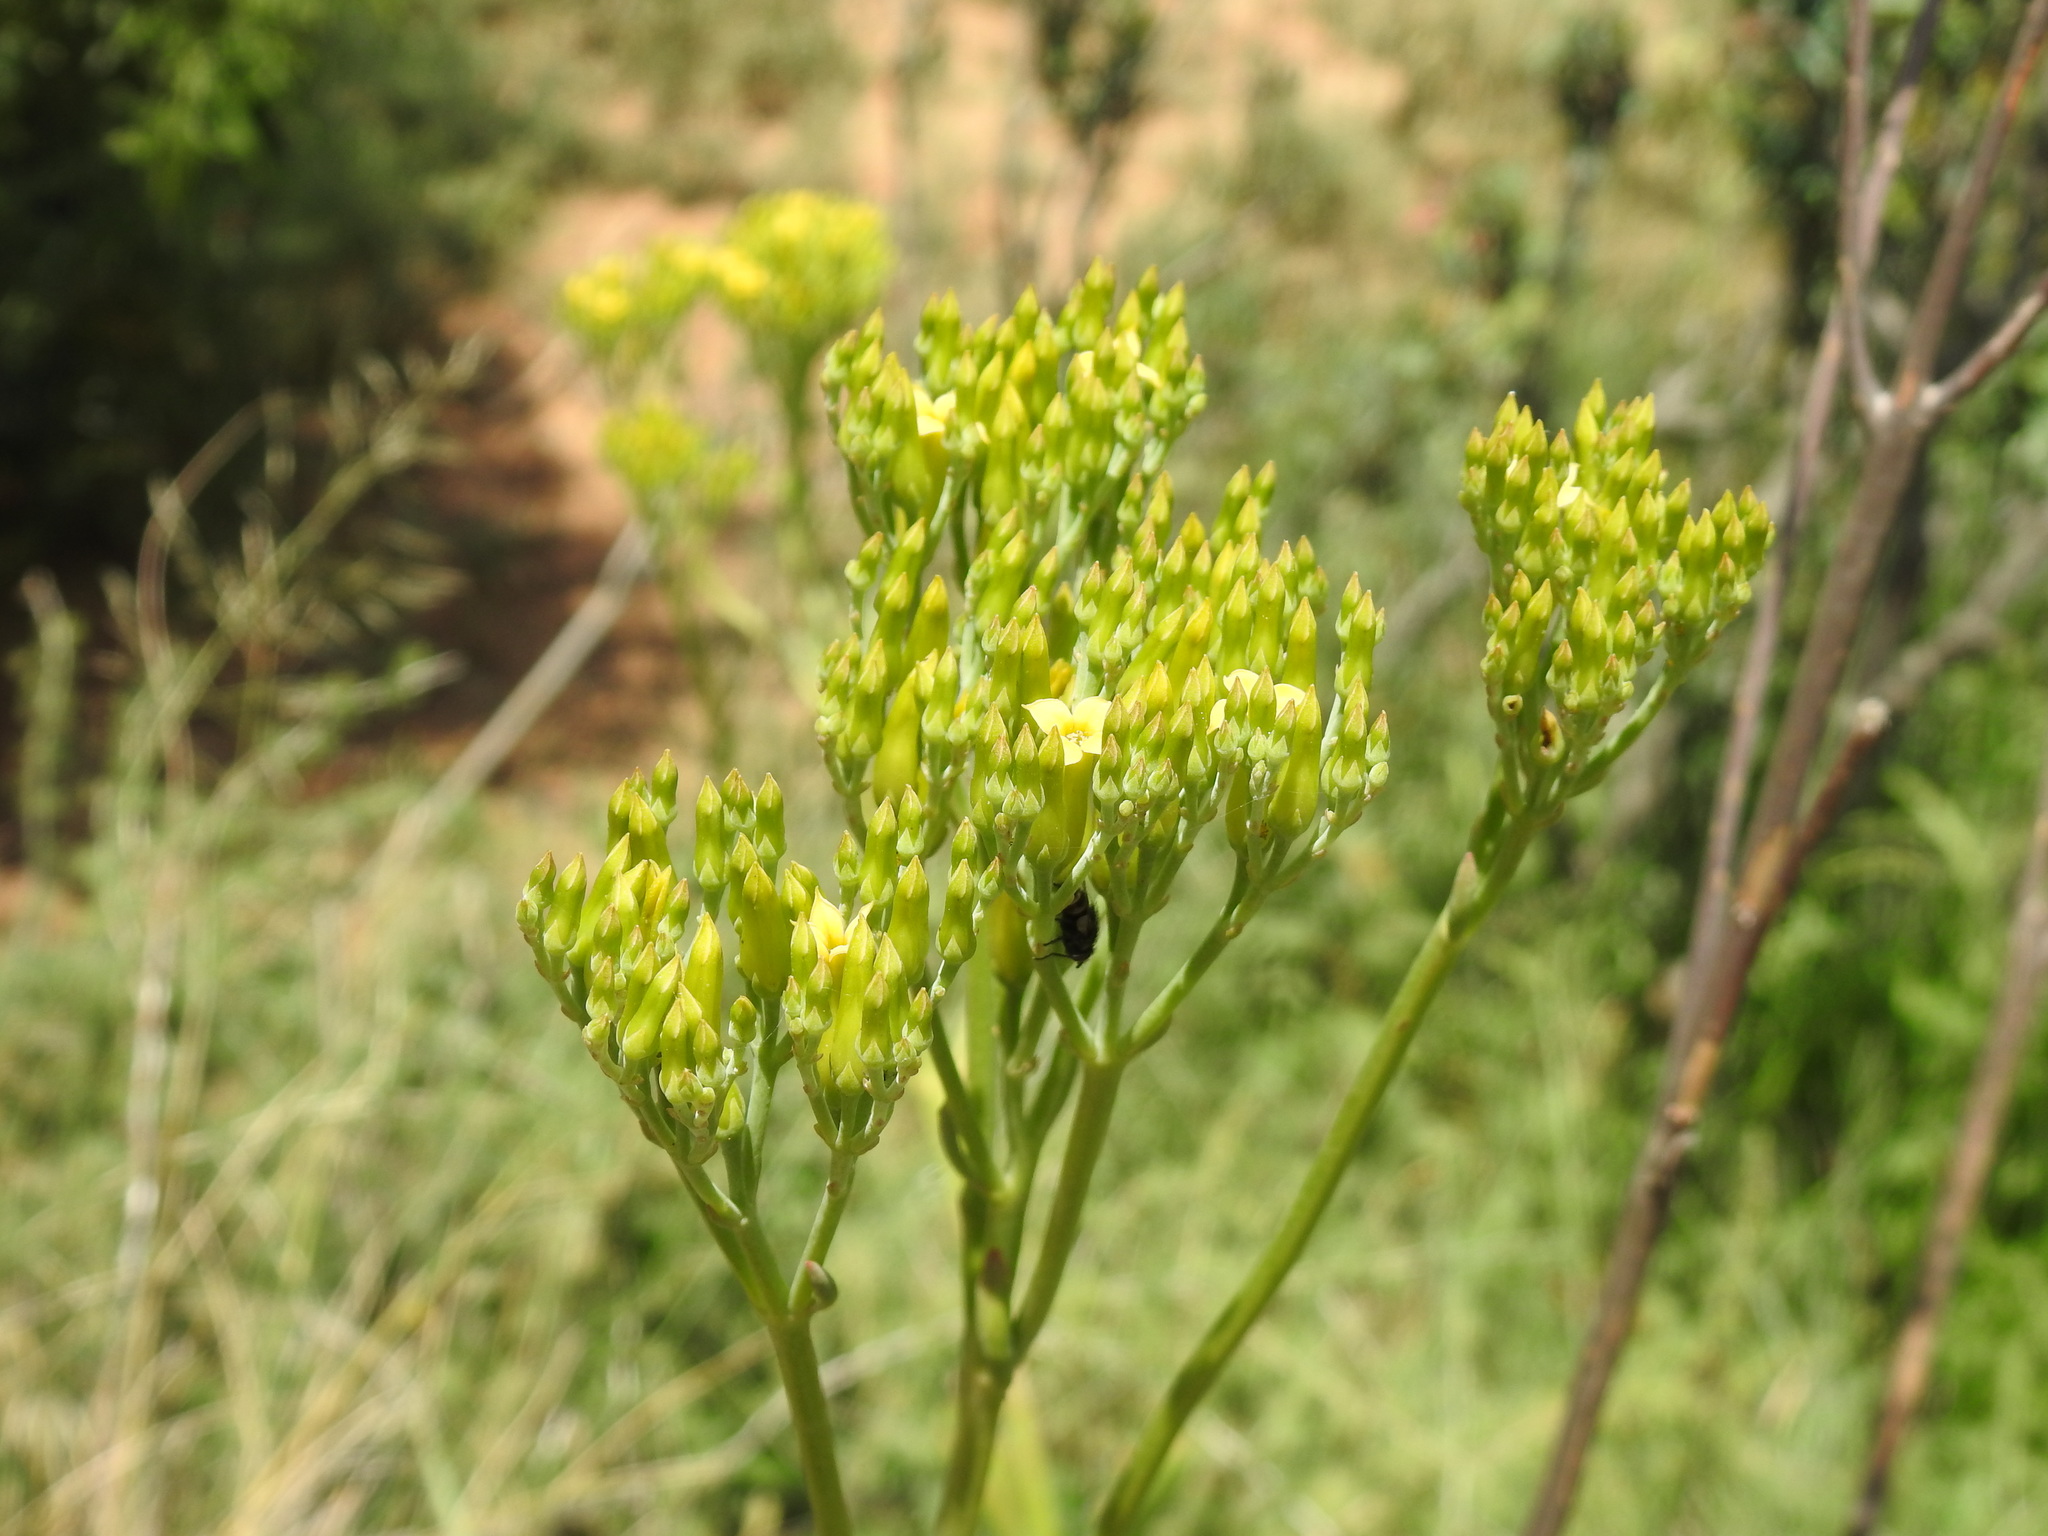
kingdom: Plantae
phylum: Tracheophyta
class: Magnoliopsida
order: Saxifragales
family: Crassulaceae
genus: Kalanchoe
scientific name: Kalanchoe paniculata
